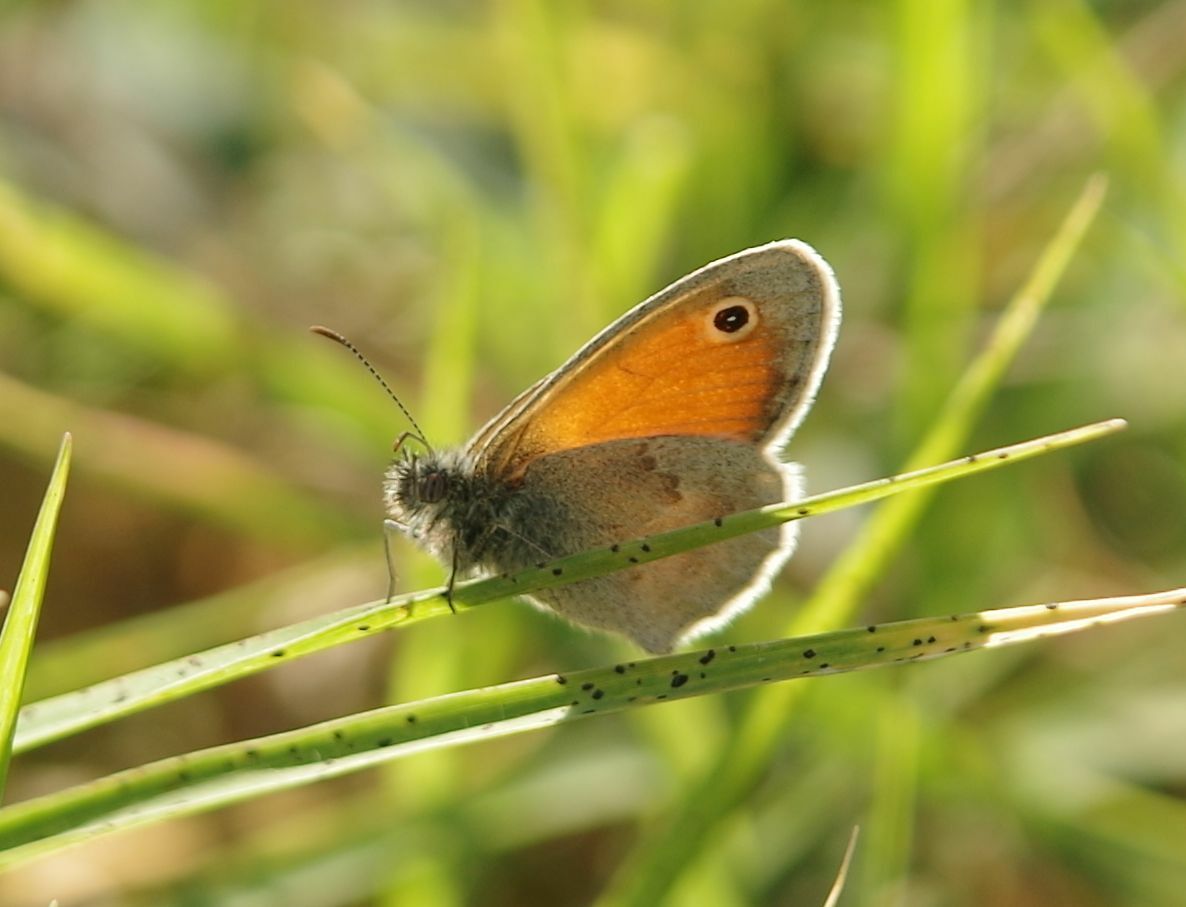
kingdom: Animalia
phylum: Arthropoda
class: Insecta
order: Lepidoptera
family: Nymphalidae
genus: Coenonympha
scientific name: Coenonympha pamphilus
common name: Small heath
